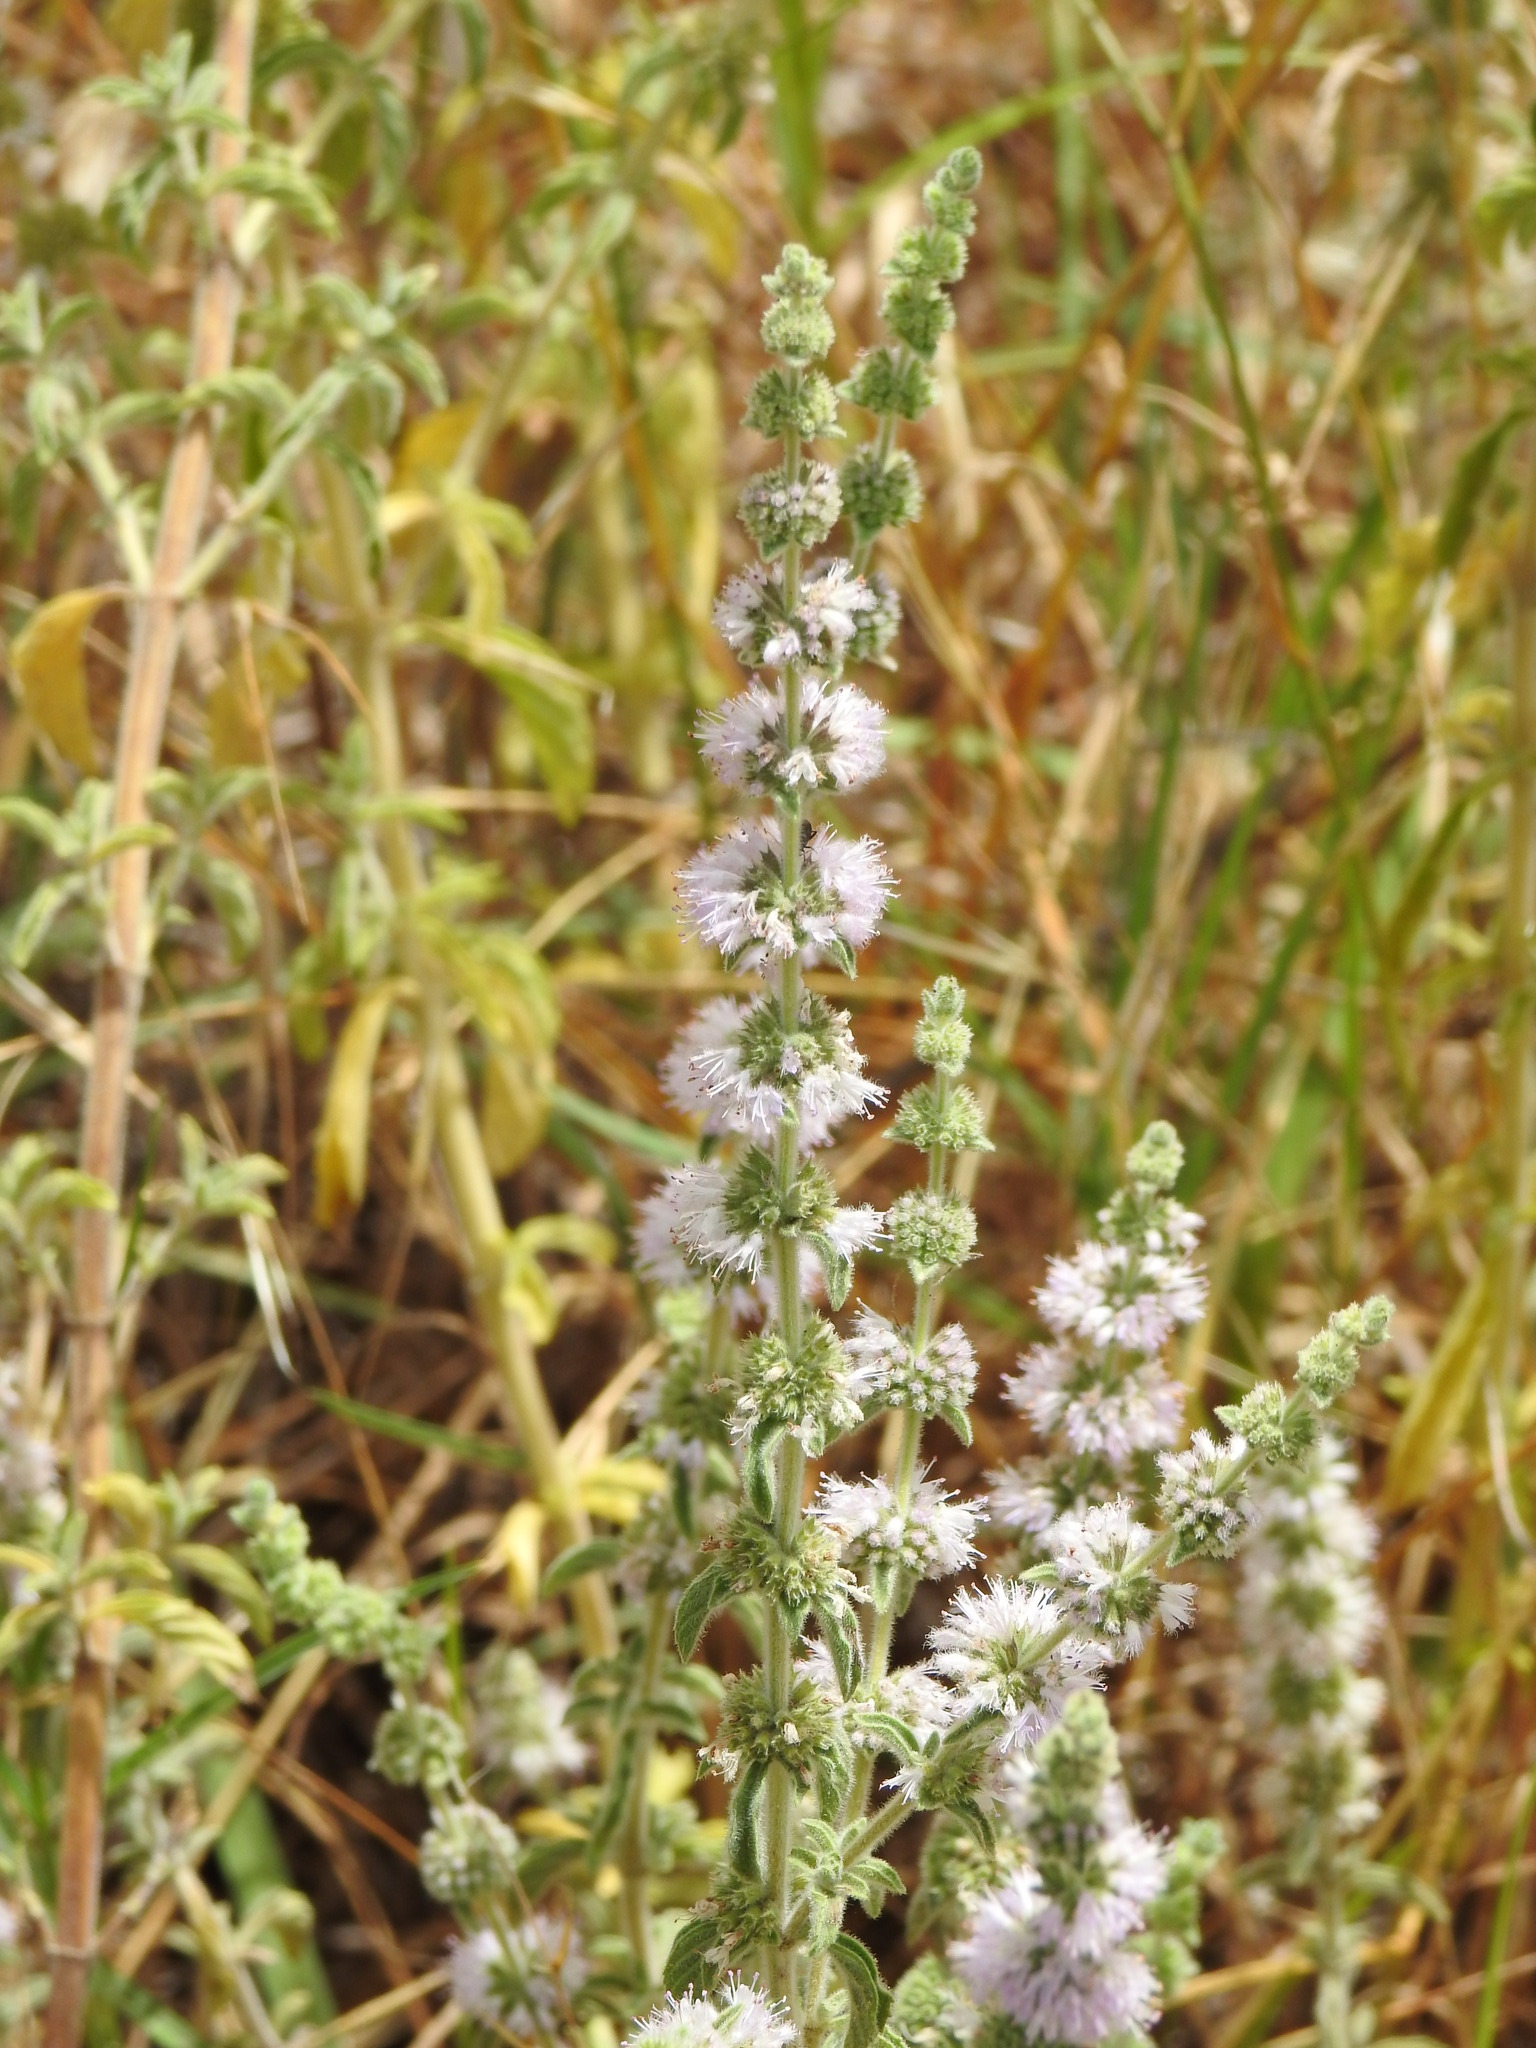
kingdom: Plantae
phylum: Tracheophyta
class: Magnoliopsida
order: Lamiales
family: Lamiaceae
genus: Mentha
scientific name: Mentha pulegium
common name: Pennyroyal
